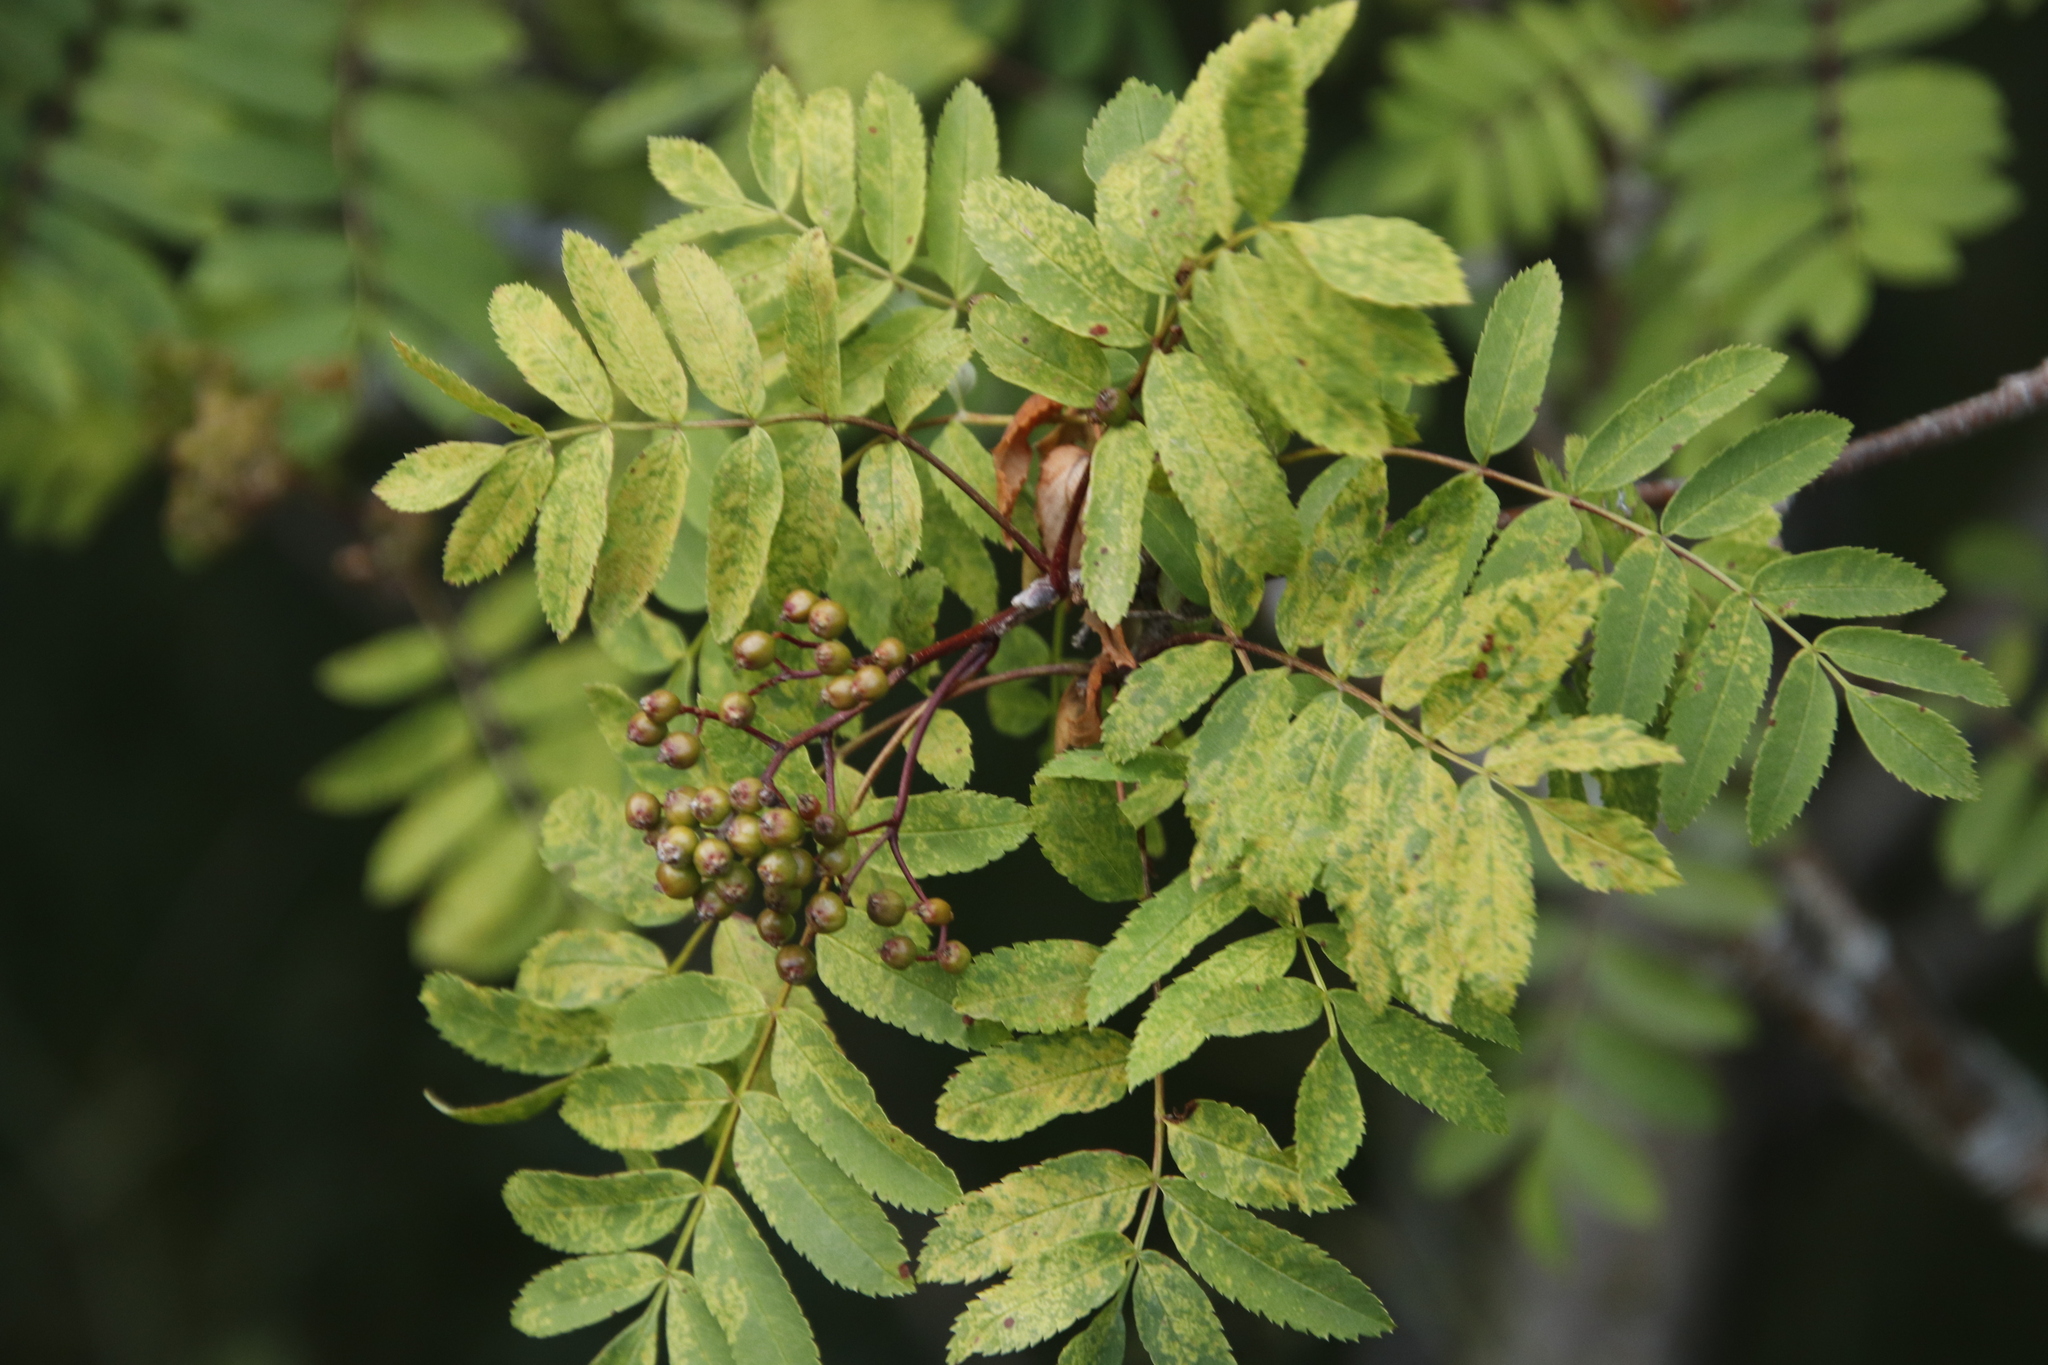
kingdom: Plantae
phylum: Tracheophyta
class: Magnoliopsida
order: Rosales
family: Rosaceae
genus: Sorbus
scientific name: Sorbus aucuparia
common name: Rowan
